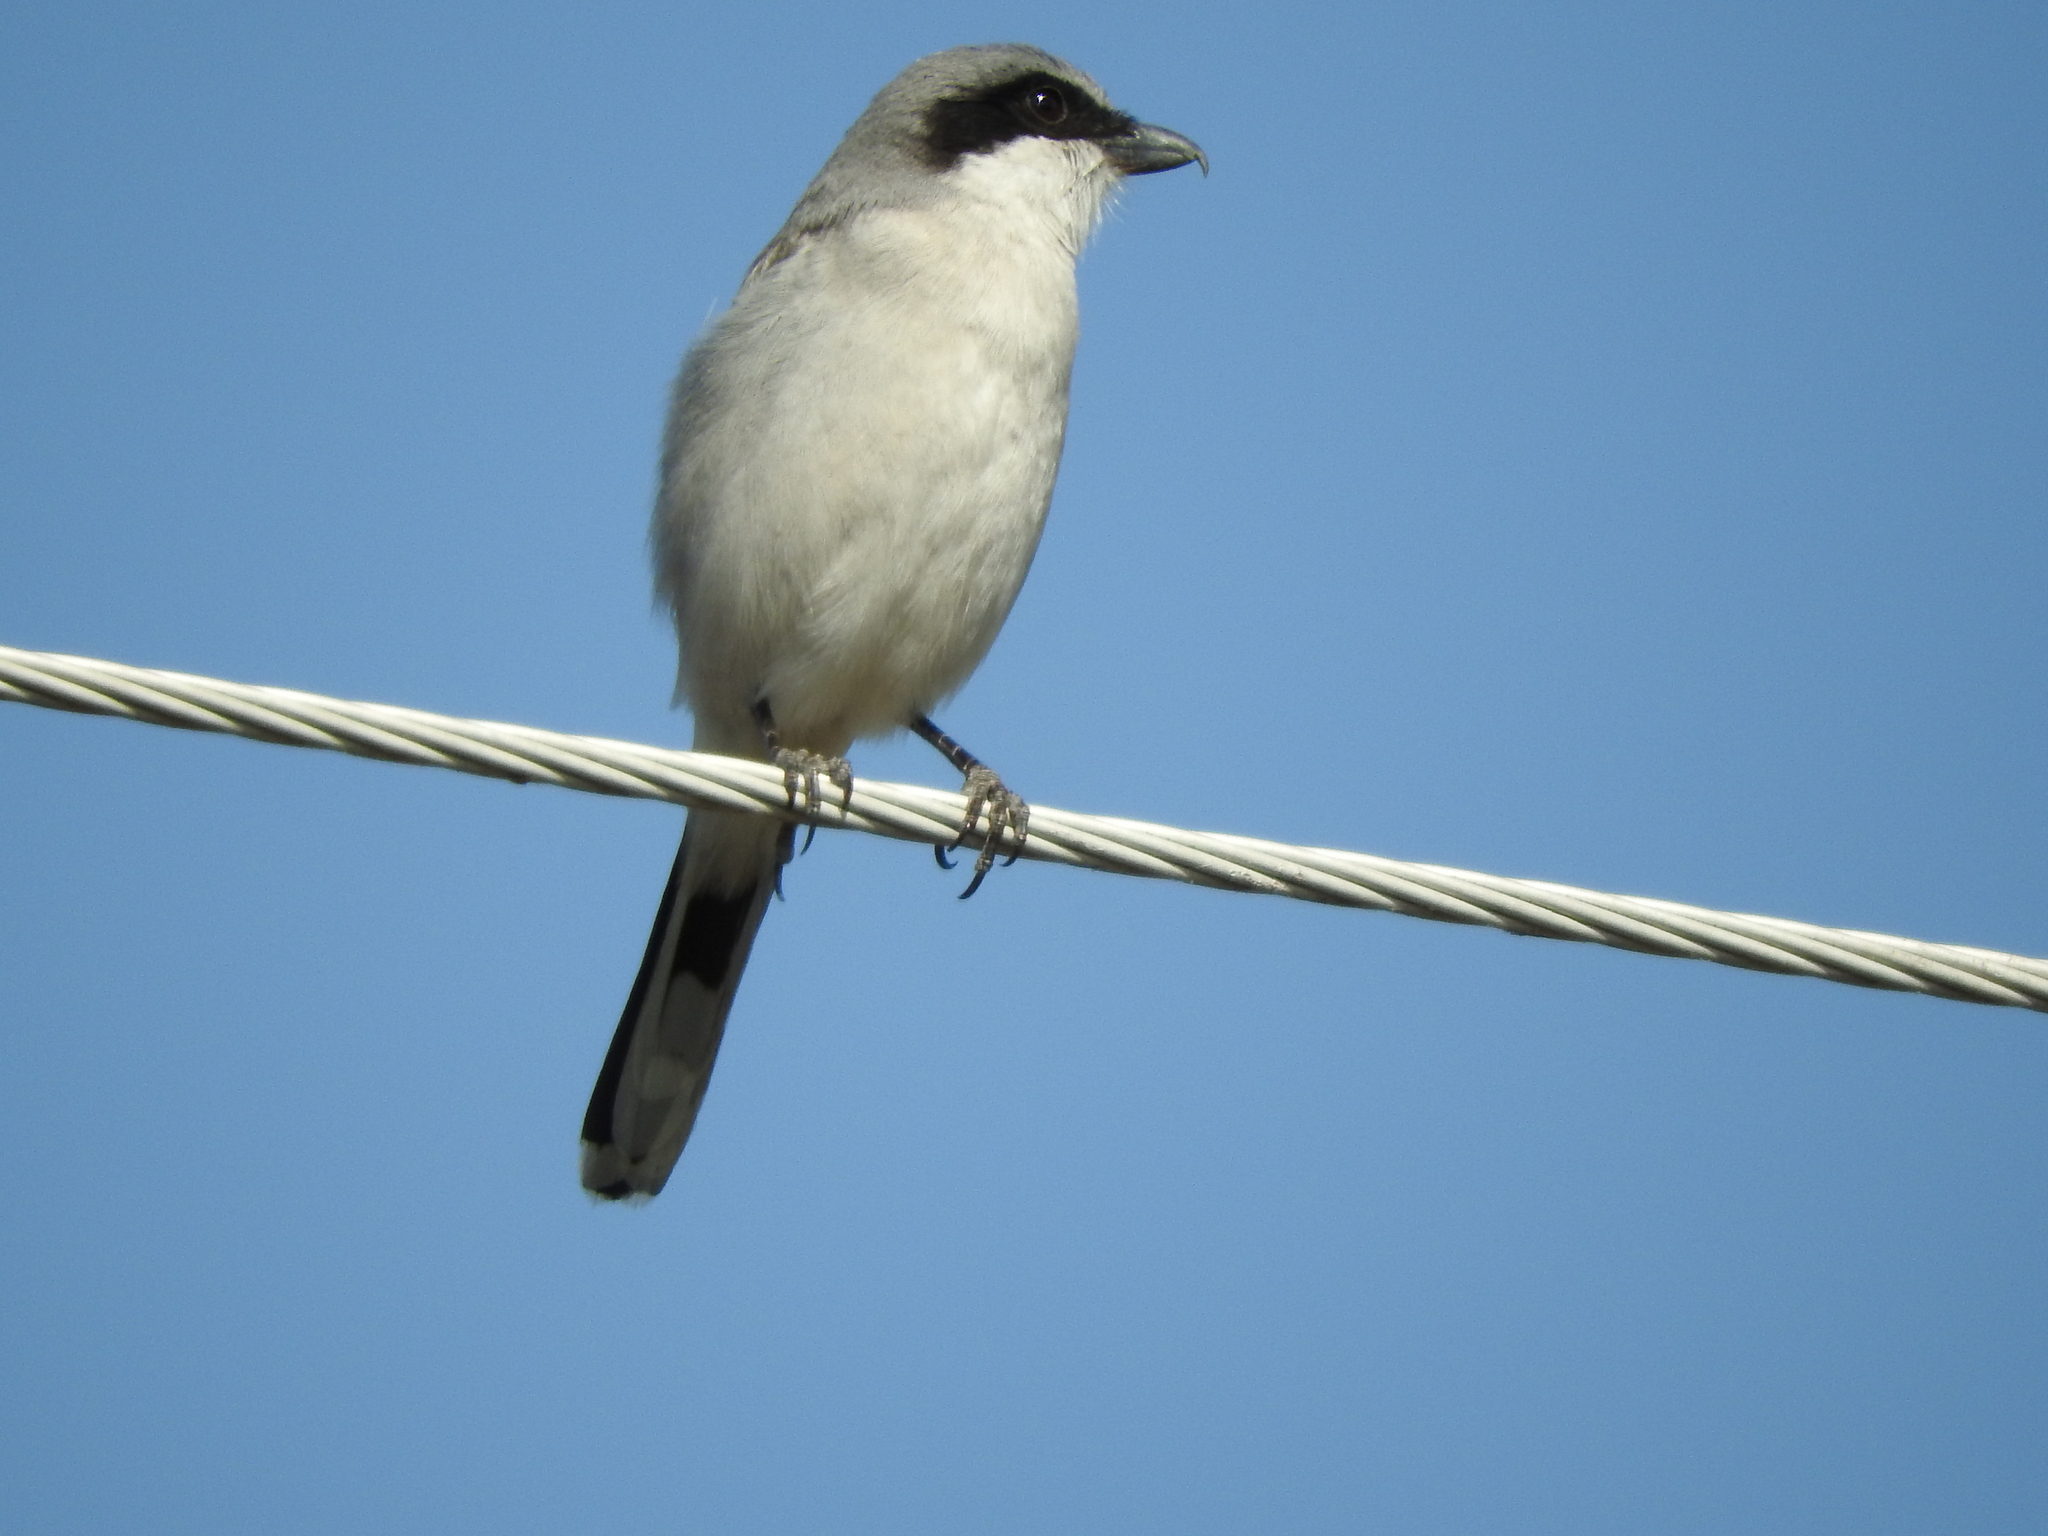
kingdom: Animalia
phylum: Chordata
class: Aves
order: Passeriformes
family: Laniidae
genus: Lanius
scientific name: Lanius ludovicianus
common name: Loggerhead shrike
